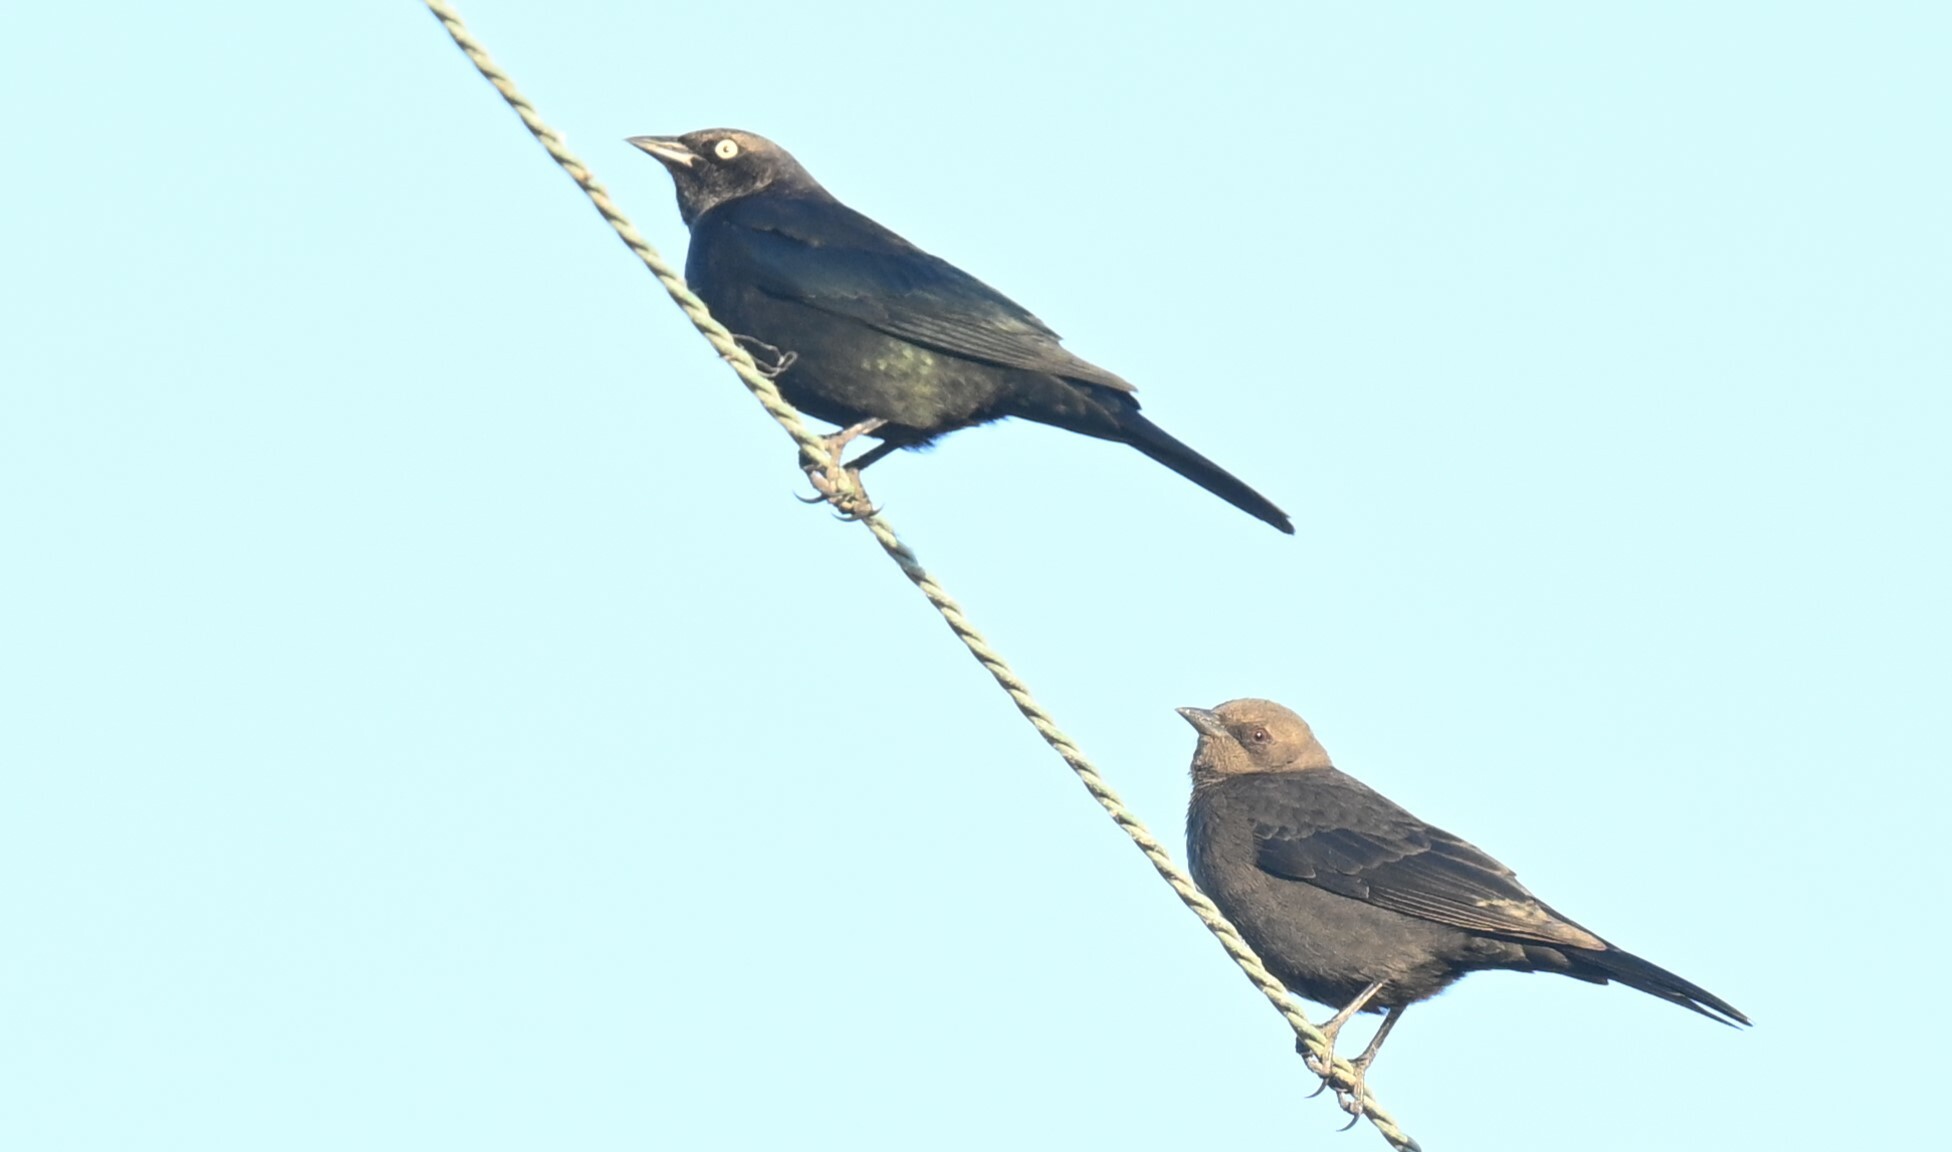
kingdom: Animalia
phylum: Chordata
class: Aves
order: Passeriformes
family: Icteridae
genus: Euphagus
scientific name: Euphagus cyanocephalus
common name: Brewer's blackbird
